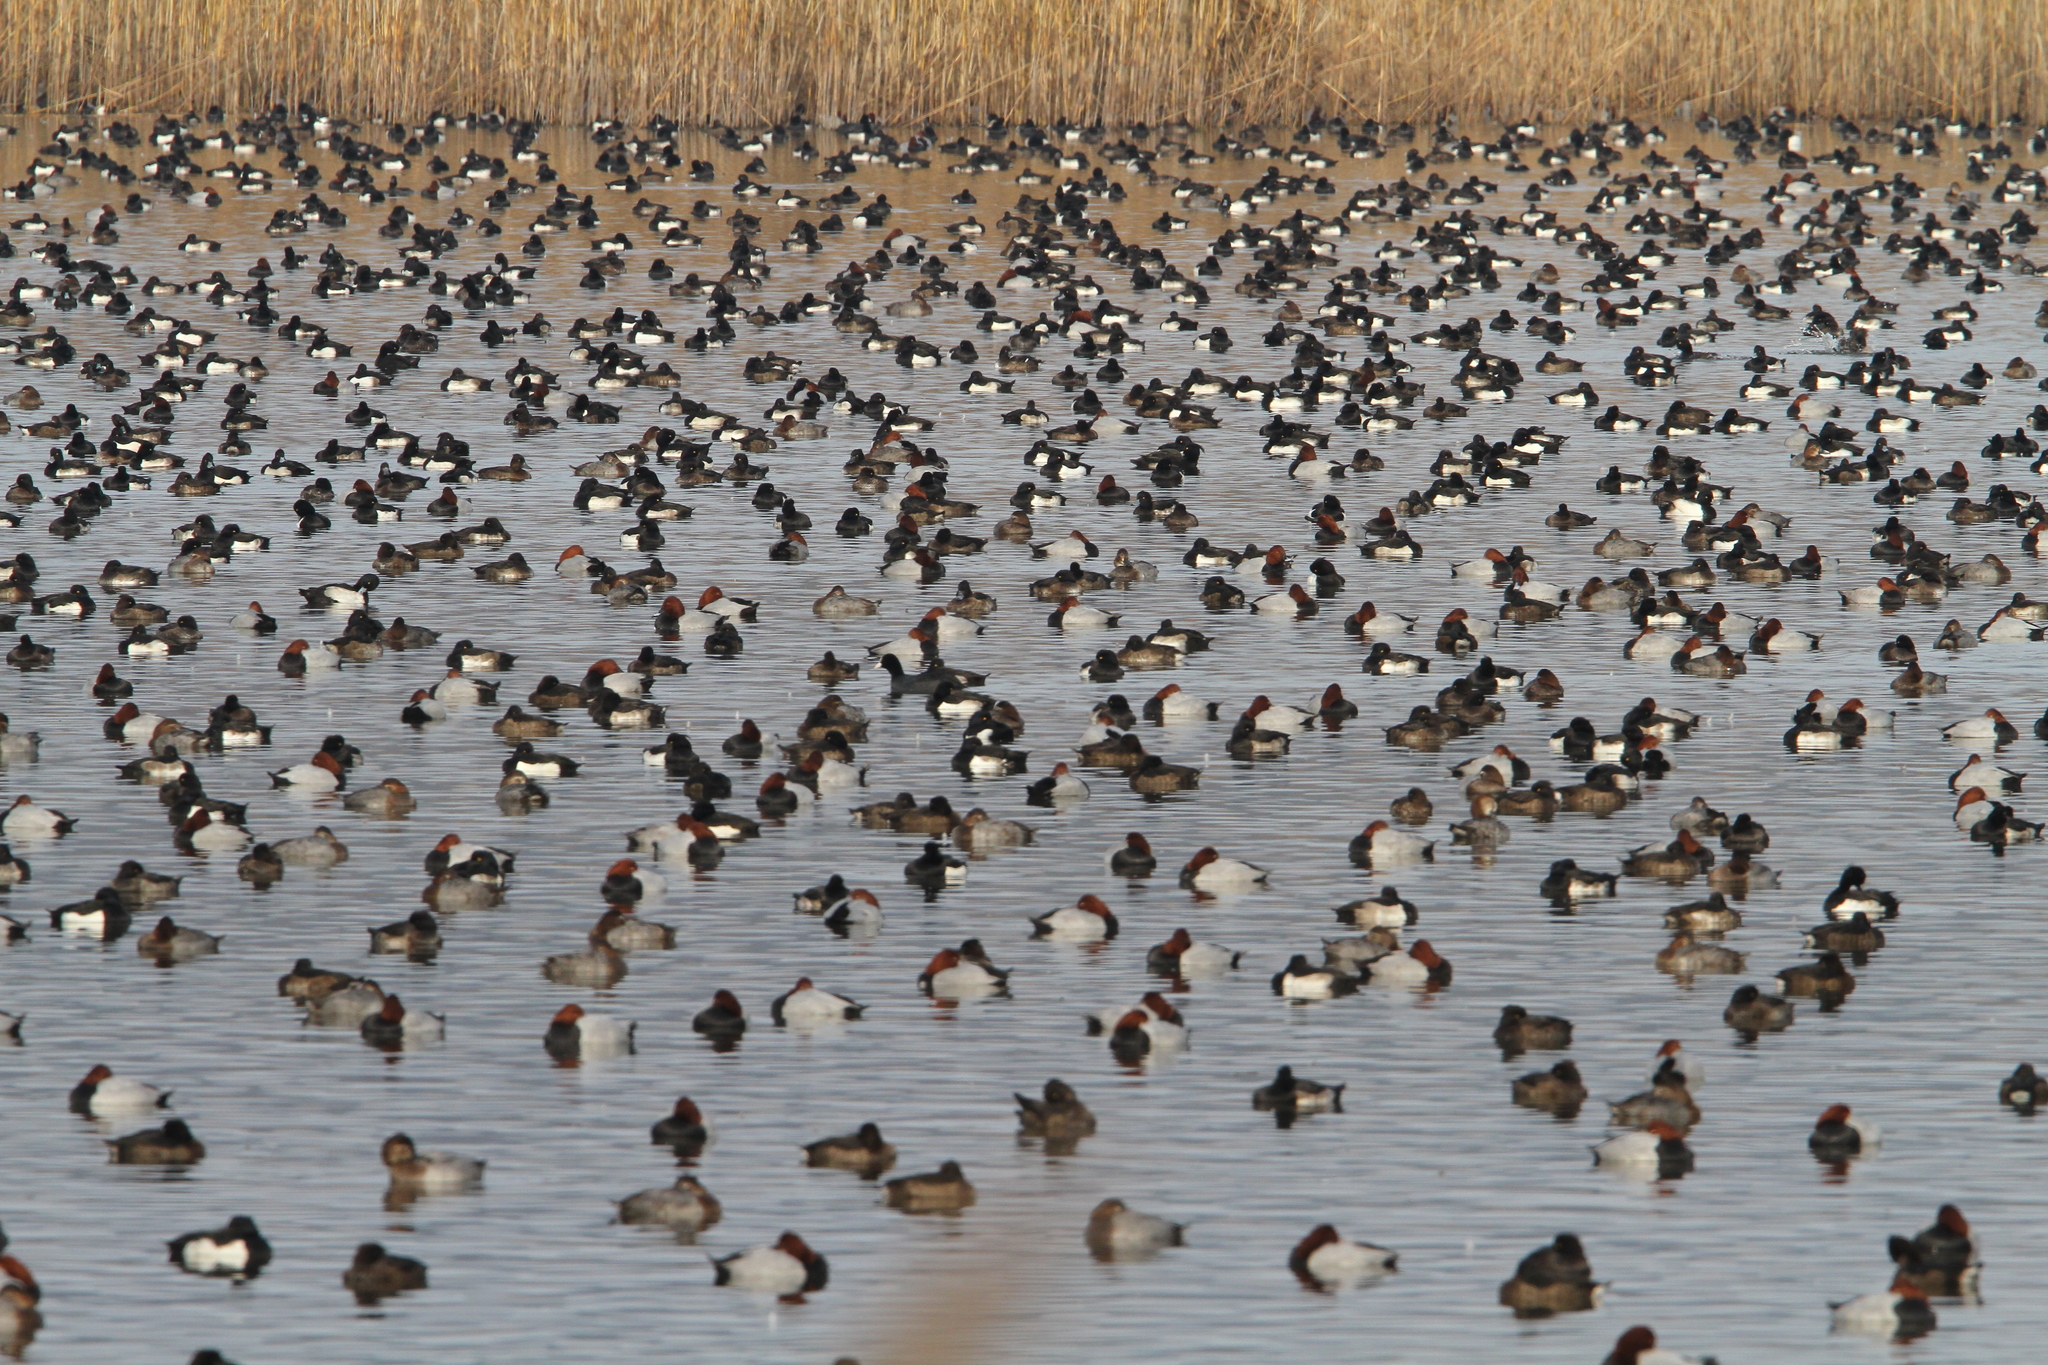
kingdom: Animalia
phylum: Chordata
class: Aves
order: Anseriformes
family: Anatidae
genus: Aythya
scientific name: Aythya ferina
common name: Common pochard
